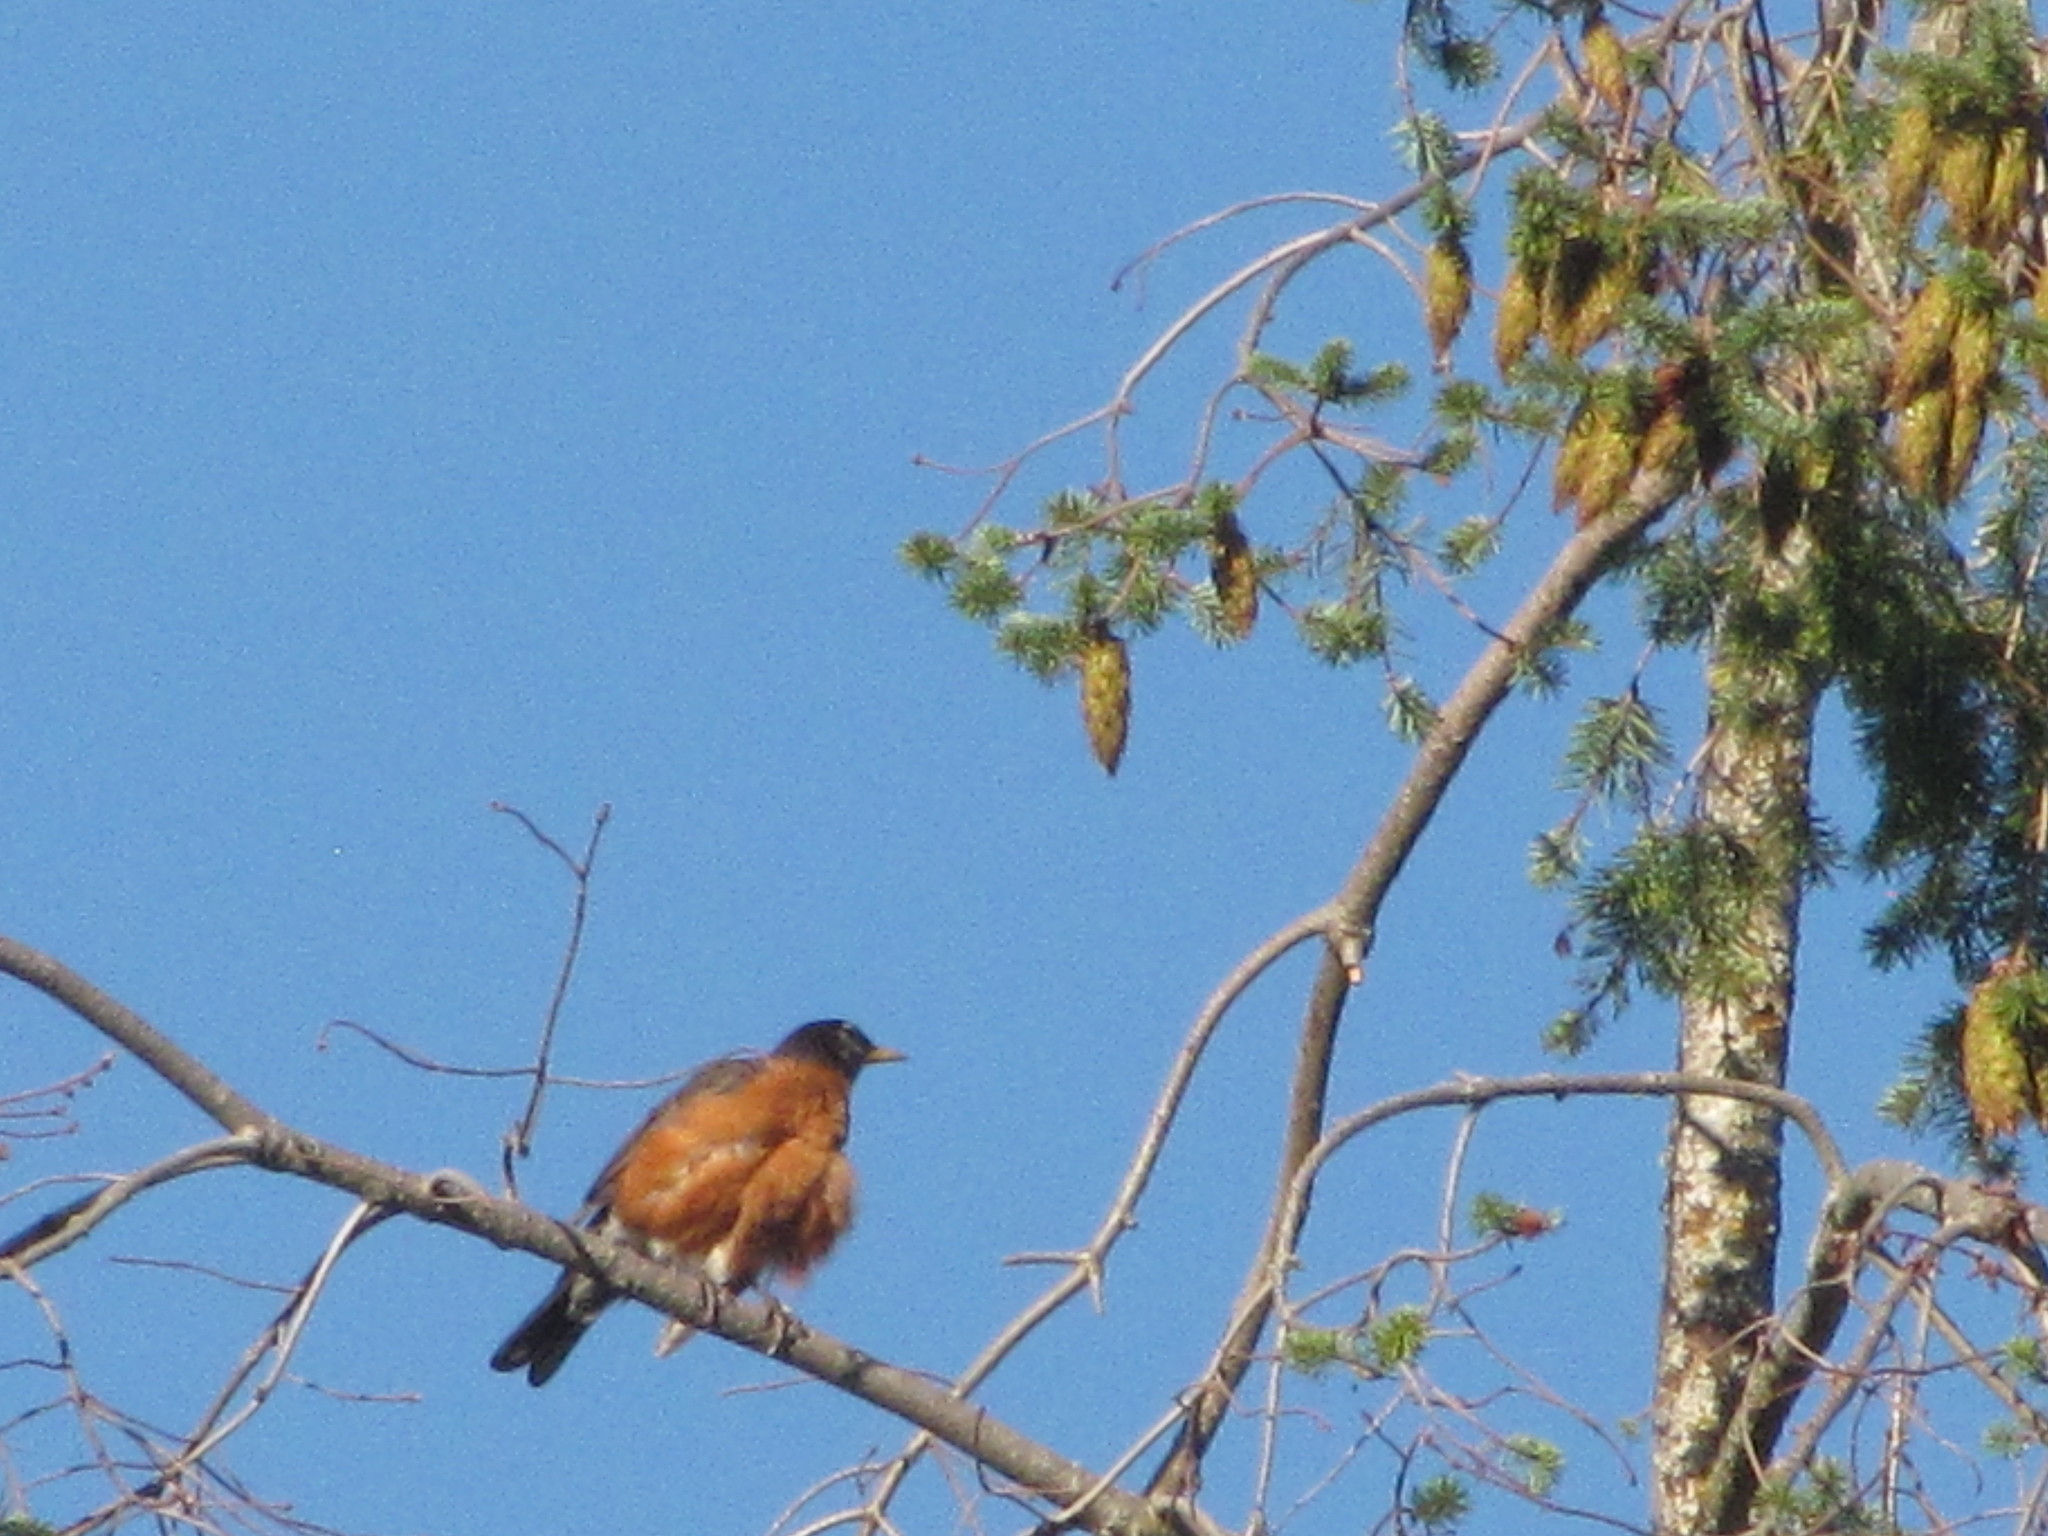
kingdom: Animalia
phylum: Chordata
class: Aves
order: Passeriformes
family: Turdidae
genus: Turdus
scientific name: Turdus migratorius
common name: American robin
